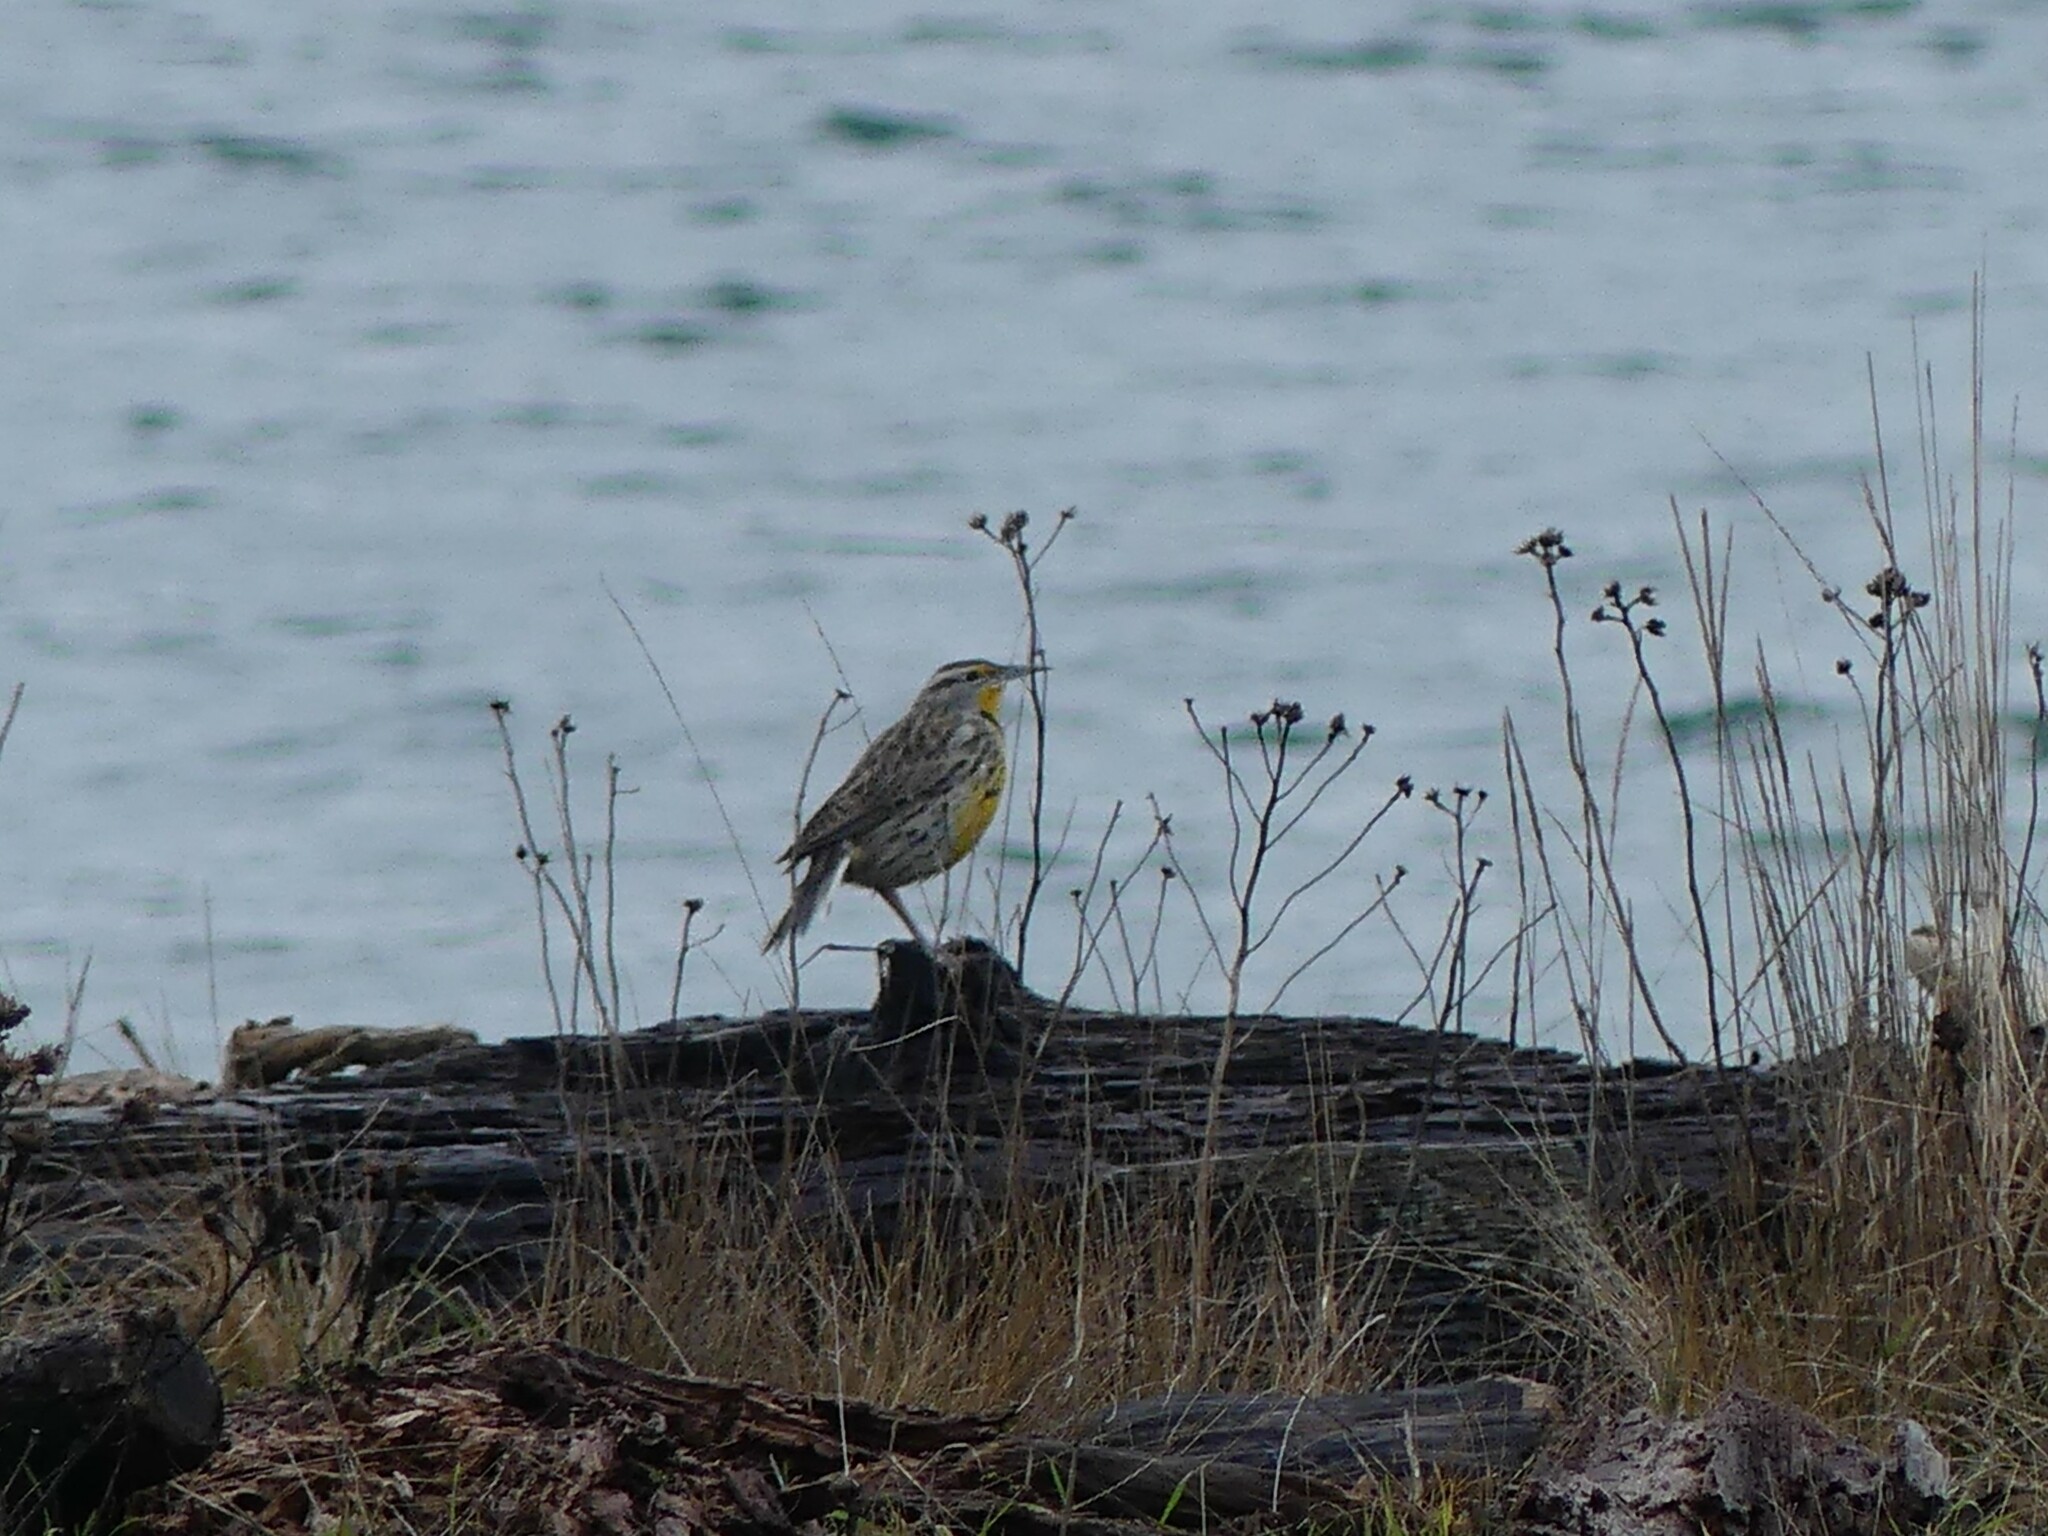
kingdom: Animalia
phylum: Chordata
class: Aves
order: Passeriformes
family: Icteridae
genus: Sturnella
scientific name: Sturnella neglecta
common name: Western meadowlark
